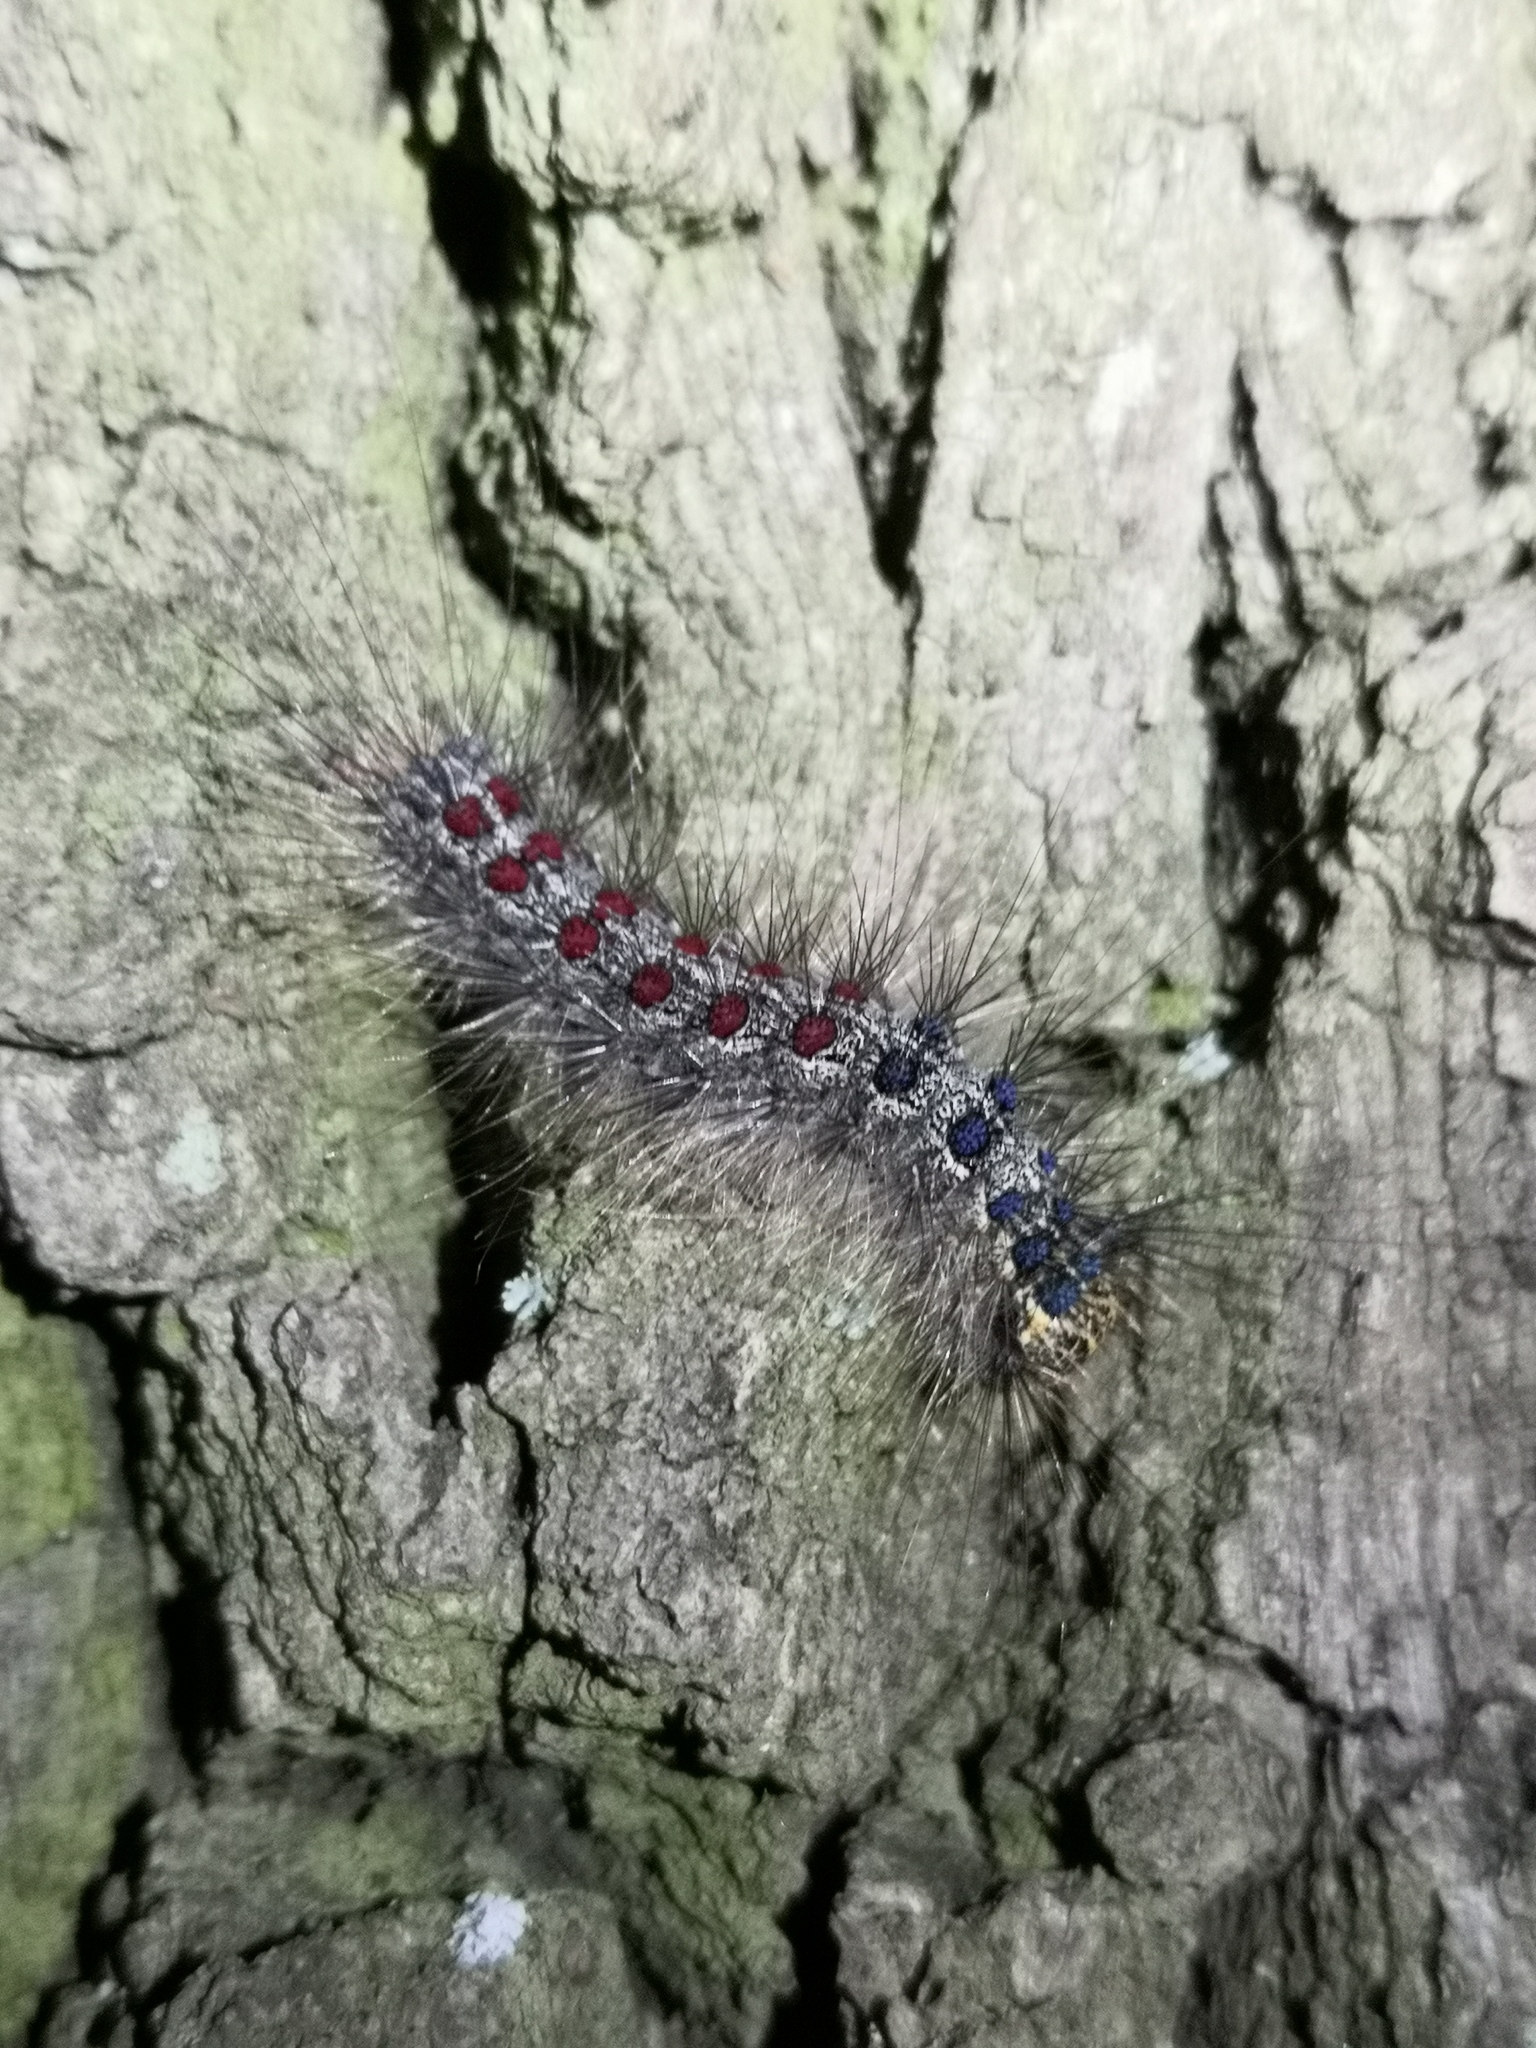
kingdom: Animalia
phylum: Arthropoda
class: Insecta
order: Lepidoptera
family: Erebidae
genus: Lymantria
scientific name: Lymantria dispar
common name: Gypsy moth
